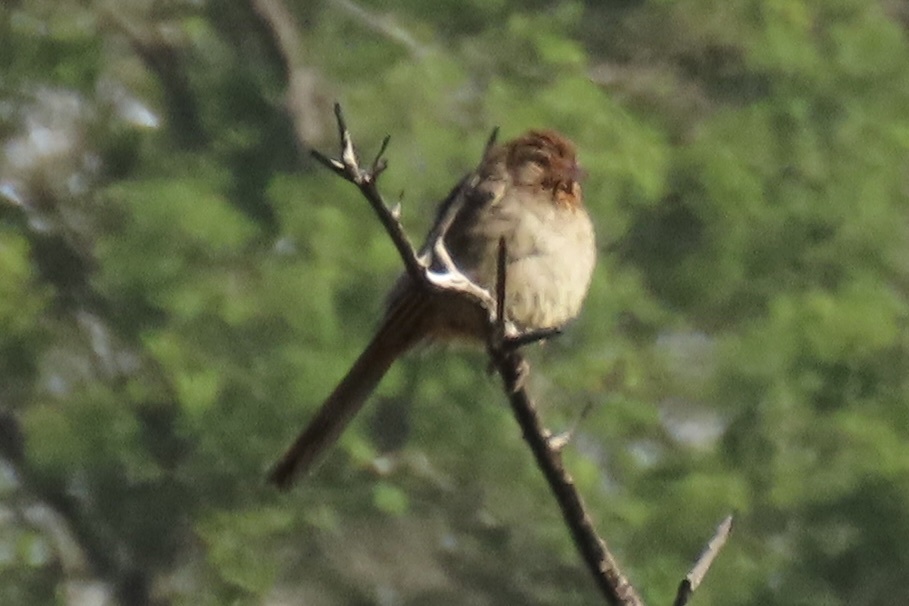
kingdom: Animalia
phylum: Chordata
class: Aves
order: Passeriformes
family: Passerellidae
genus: Melozone
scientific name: Melozone crissalis
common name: California towhee
